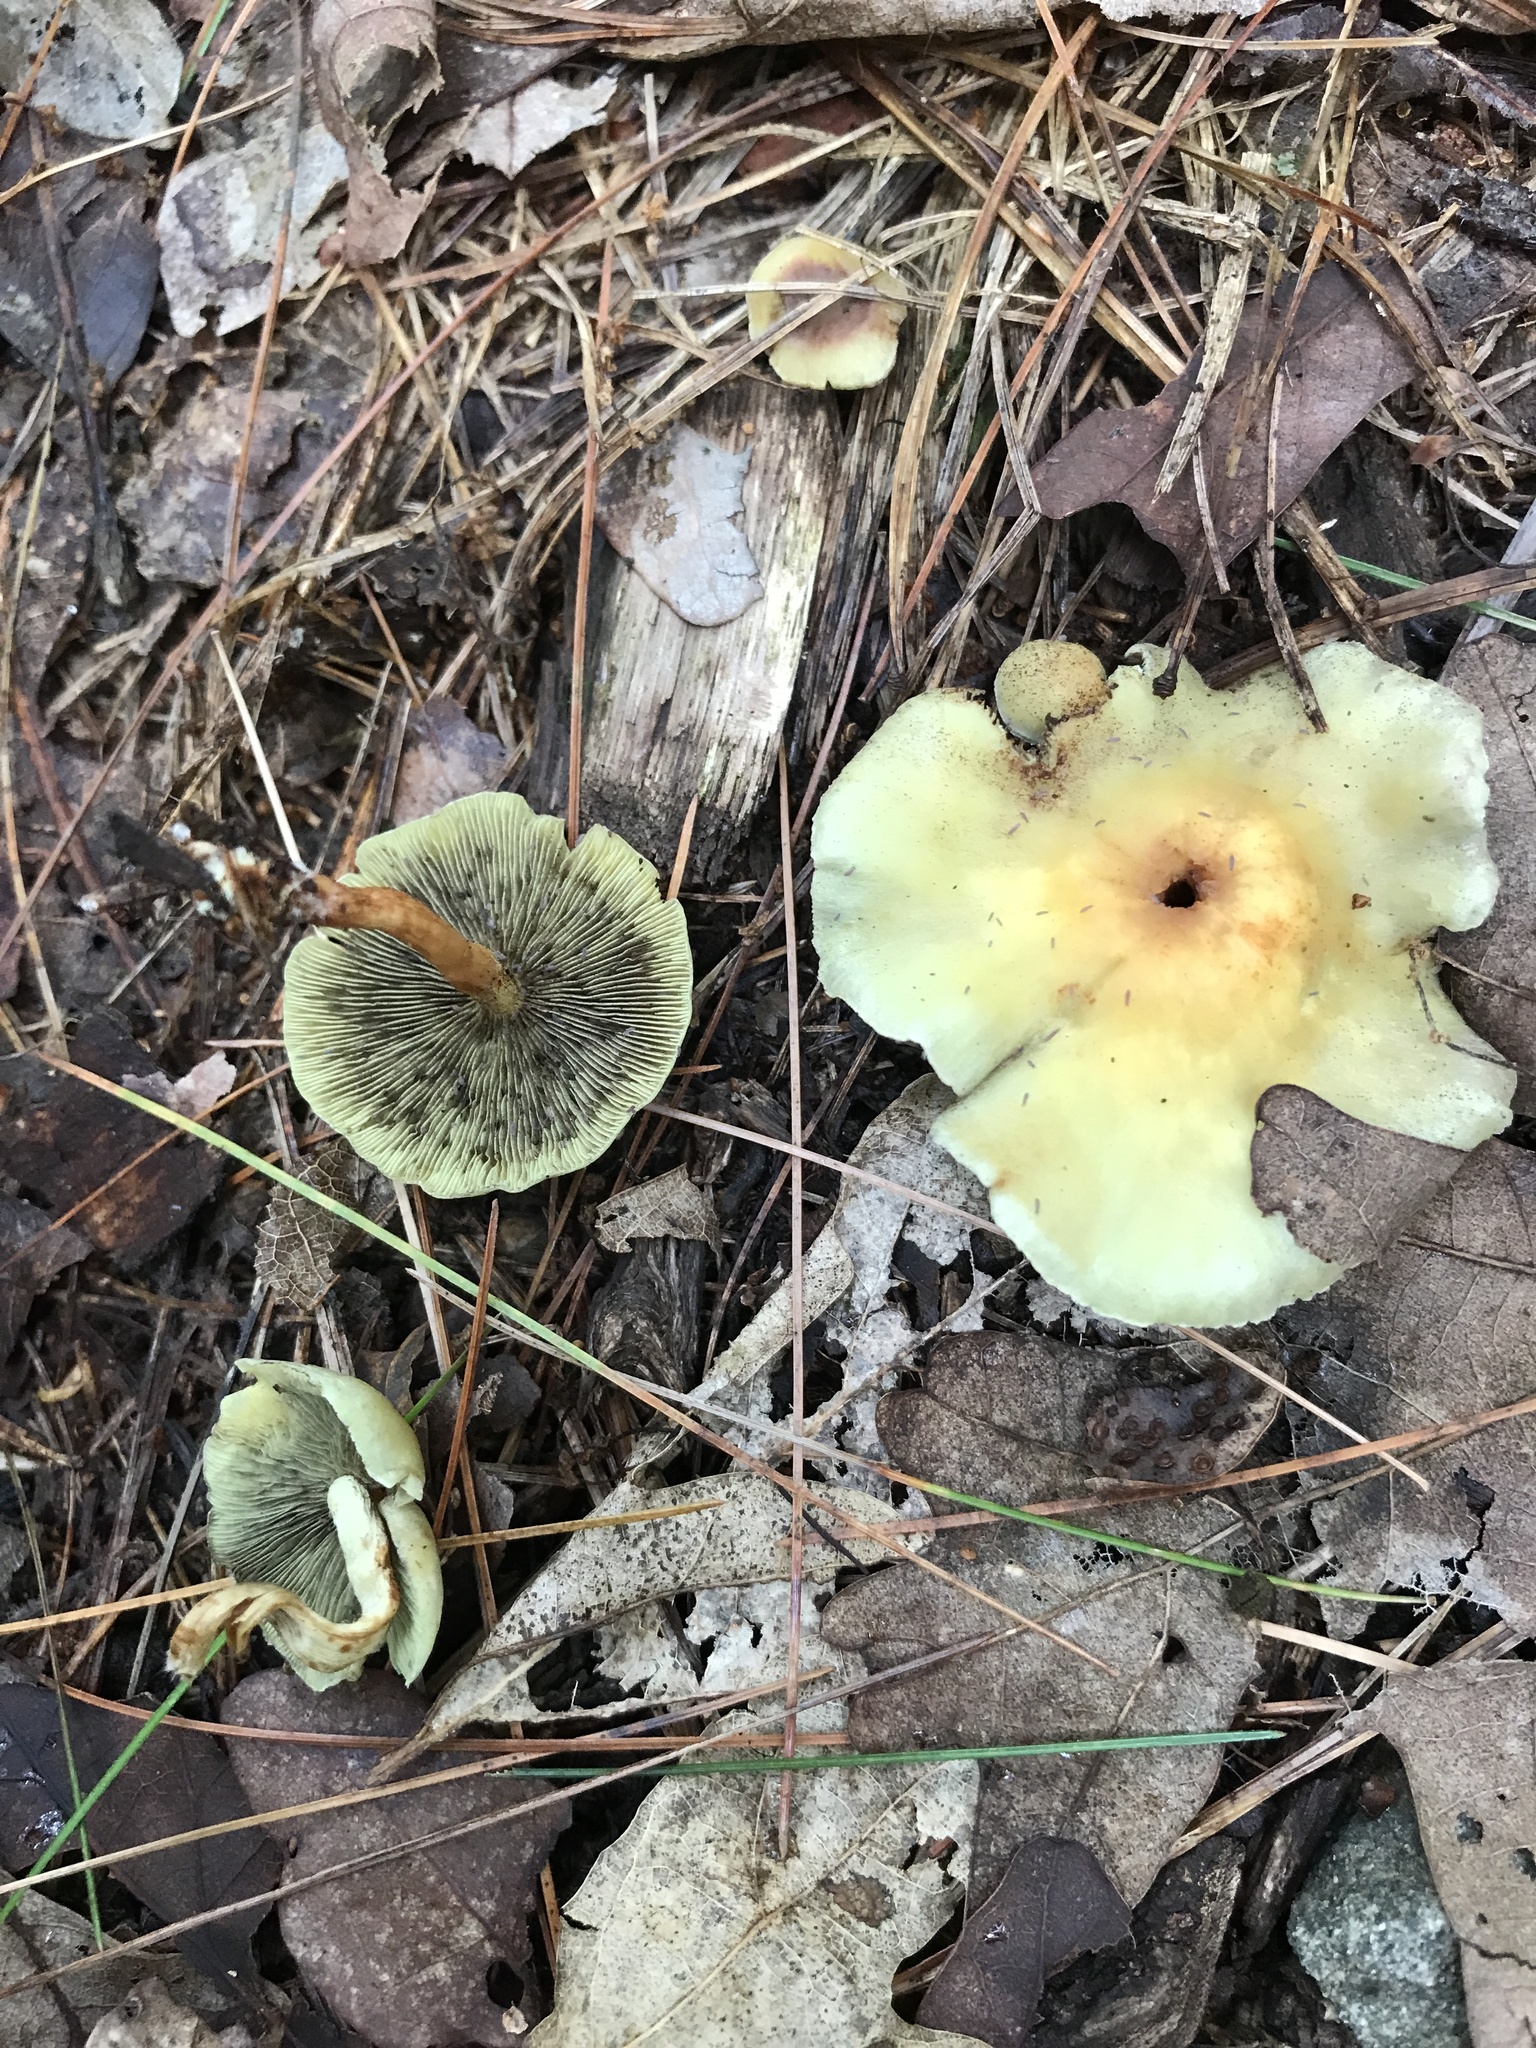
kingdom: Fungi
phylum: Basidiomycota
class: Agaricomycetes
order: Agaricales
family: Strophariaceae
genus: Hypholoma
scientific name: Hypholoma fasciculare
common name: Sulphur tuft
